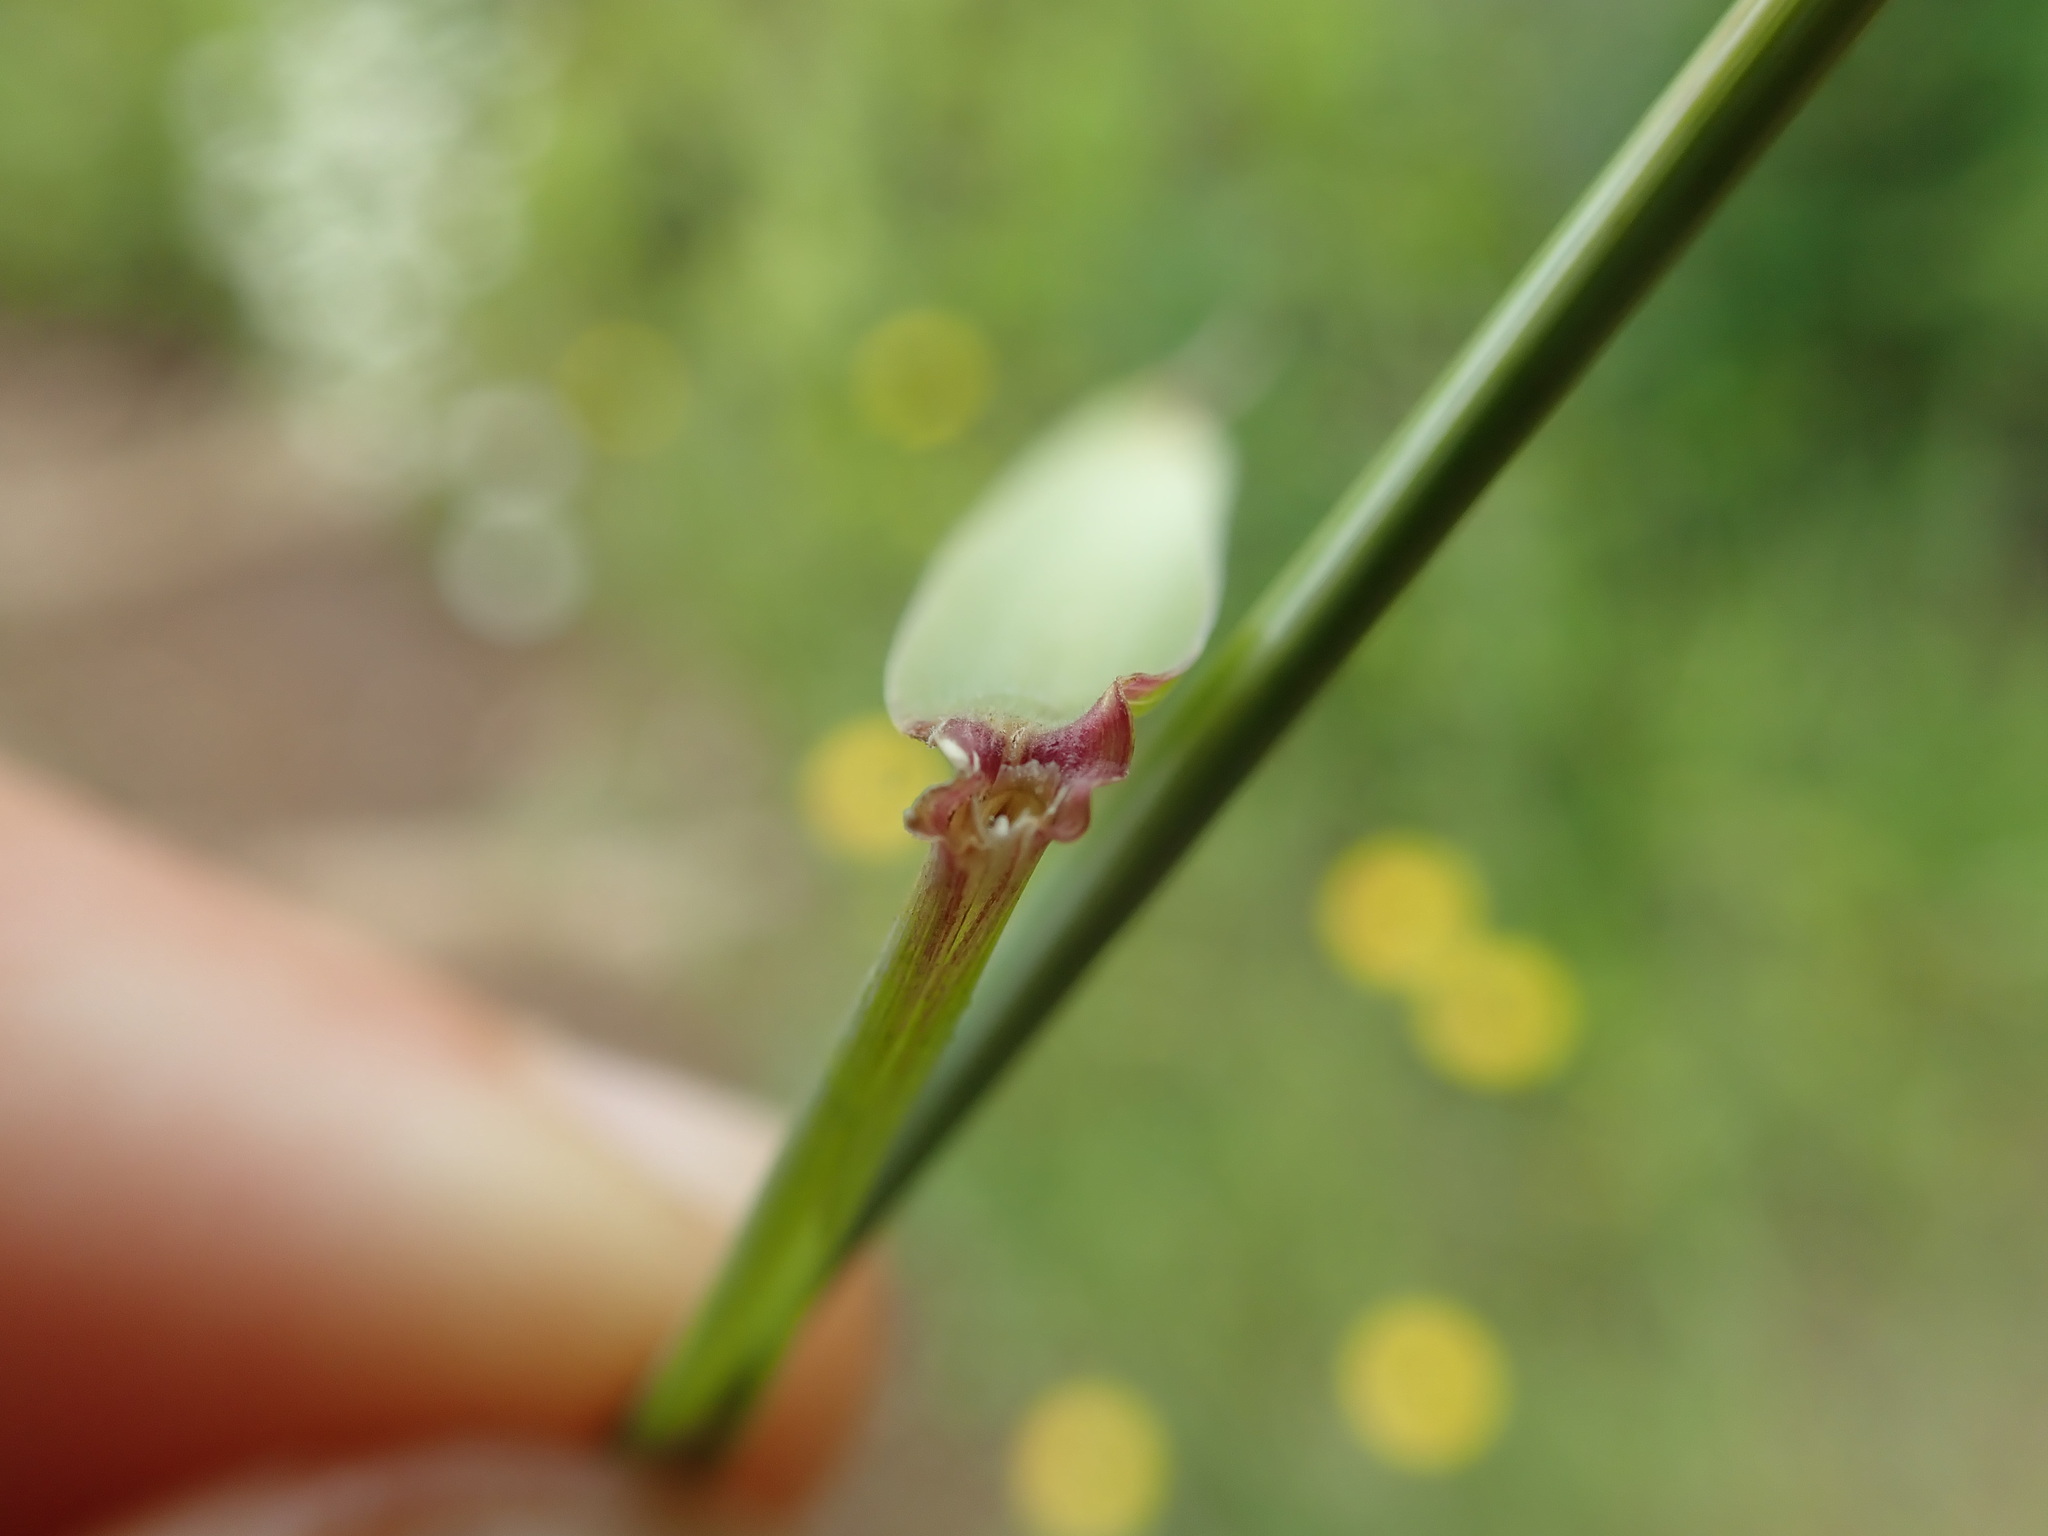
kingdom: Plantae
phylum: Tracheophyta
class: Liliopsida
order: Poales
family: Poaceae
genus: Elymus
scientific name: Elymus glaucus
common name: Blue wild rye
